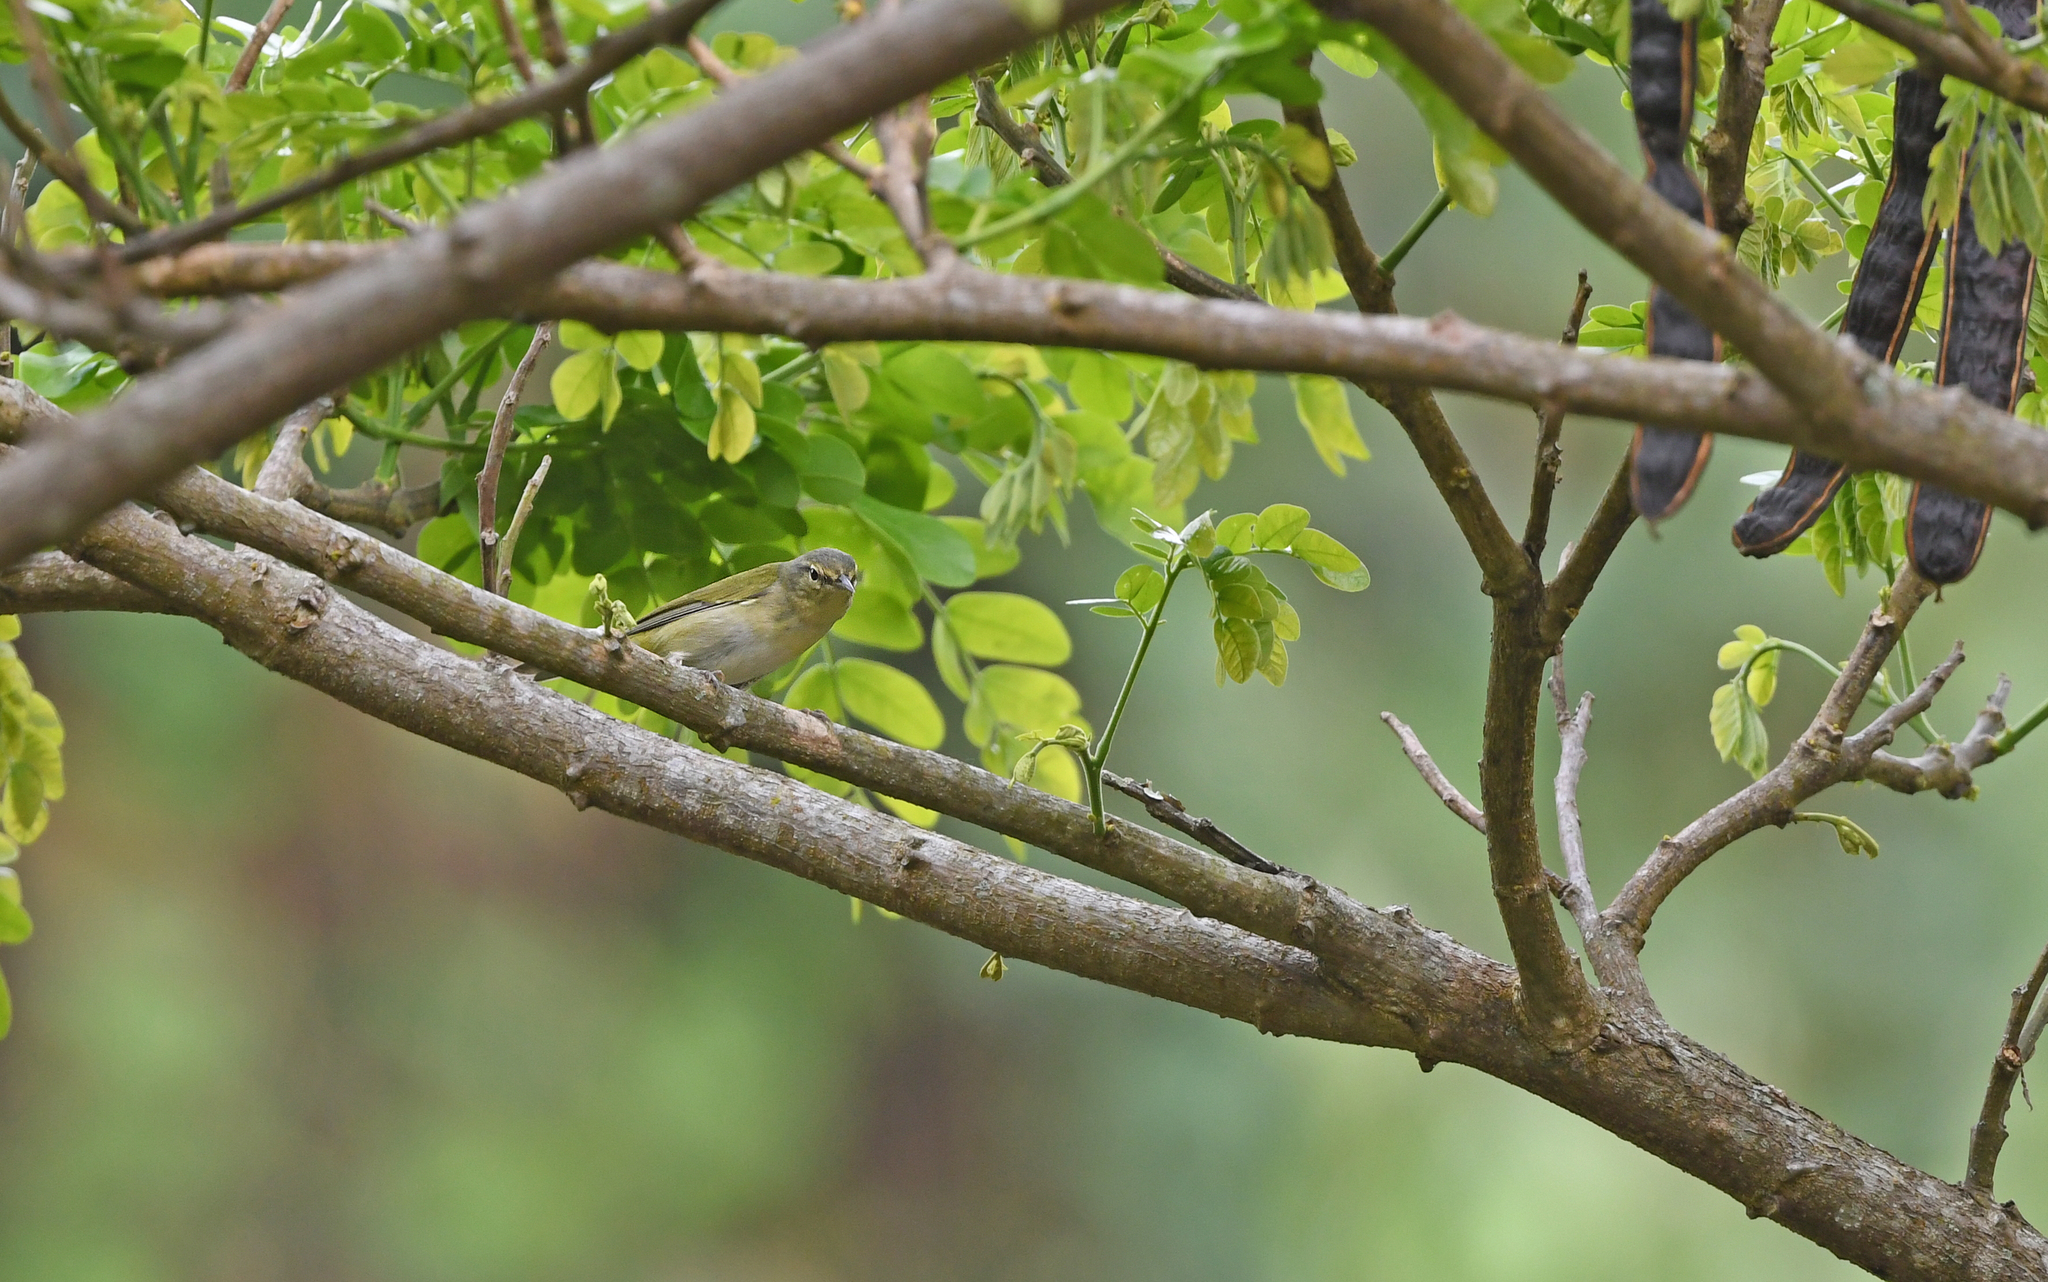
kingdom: Animalia
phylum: Chordata
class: Aves
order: Passeriformes
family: Parulidae
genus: Leiothlypis
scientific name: Leiothlypis peregrina
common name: Tennessee warbler
